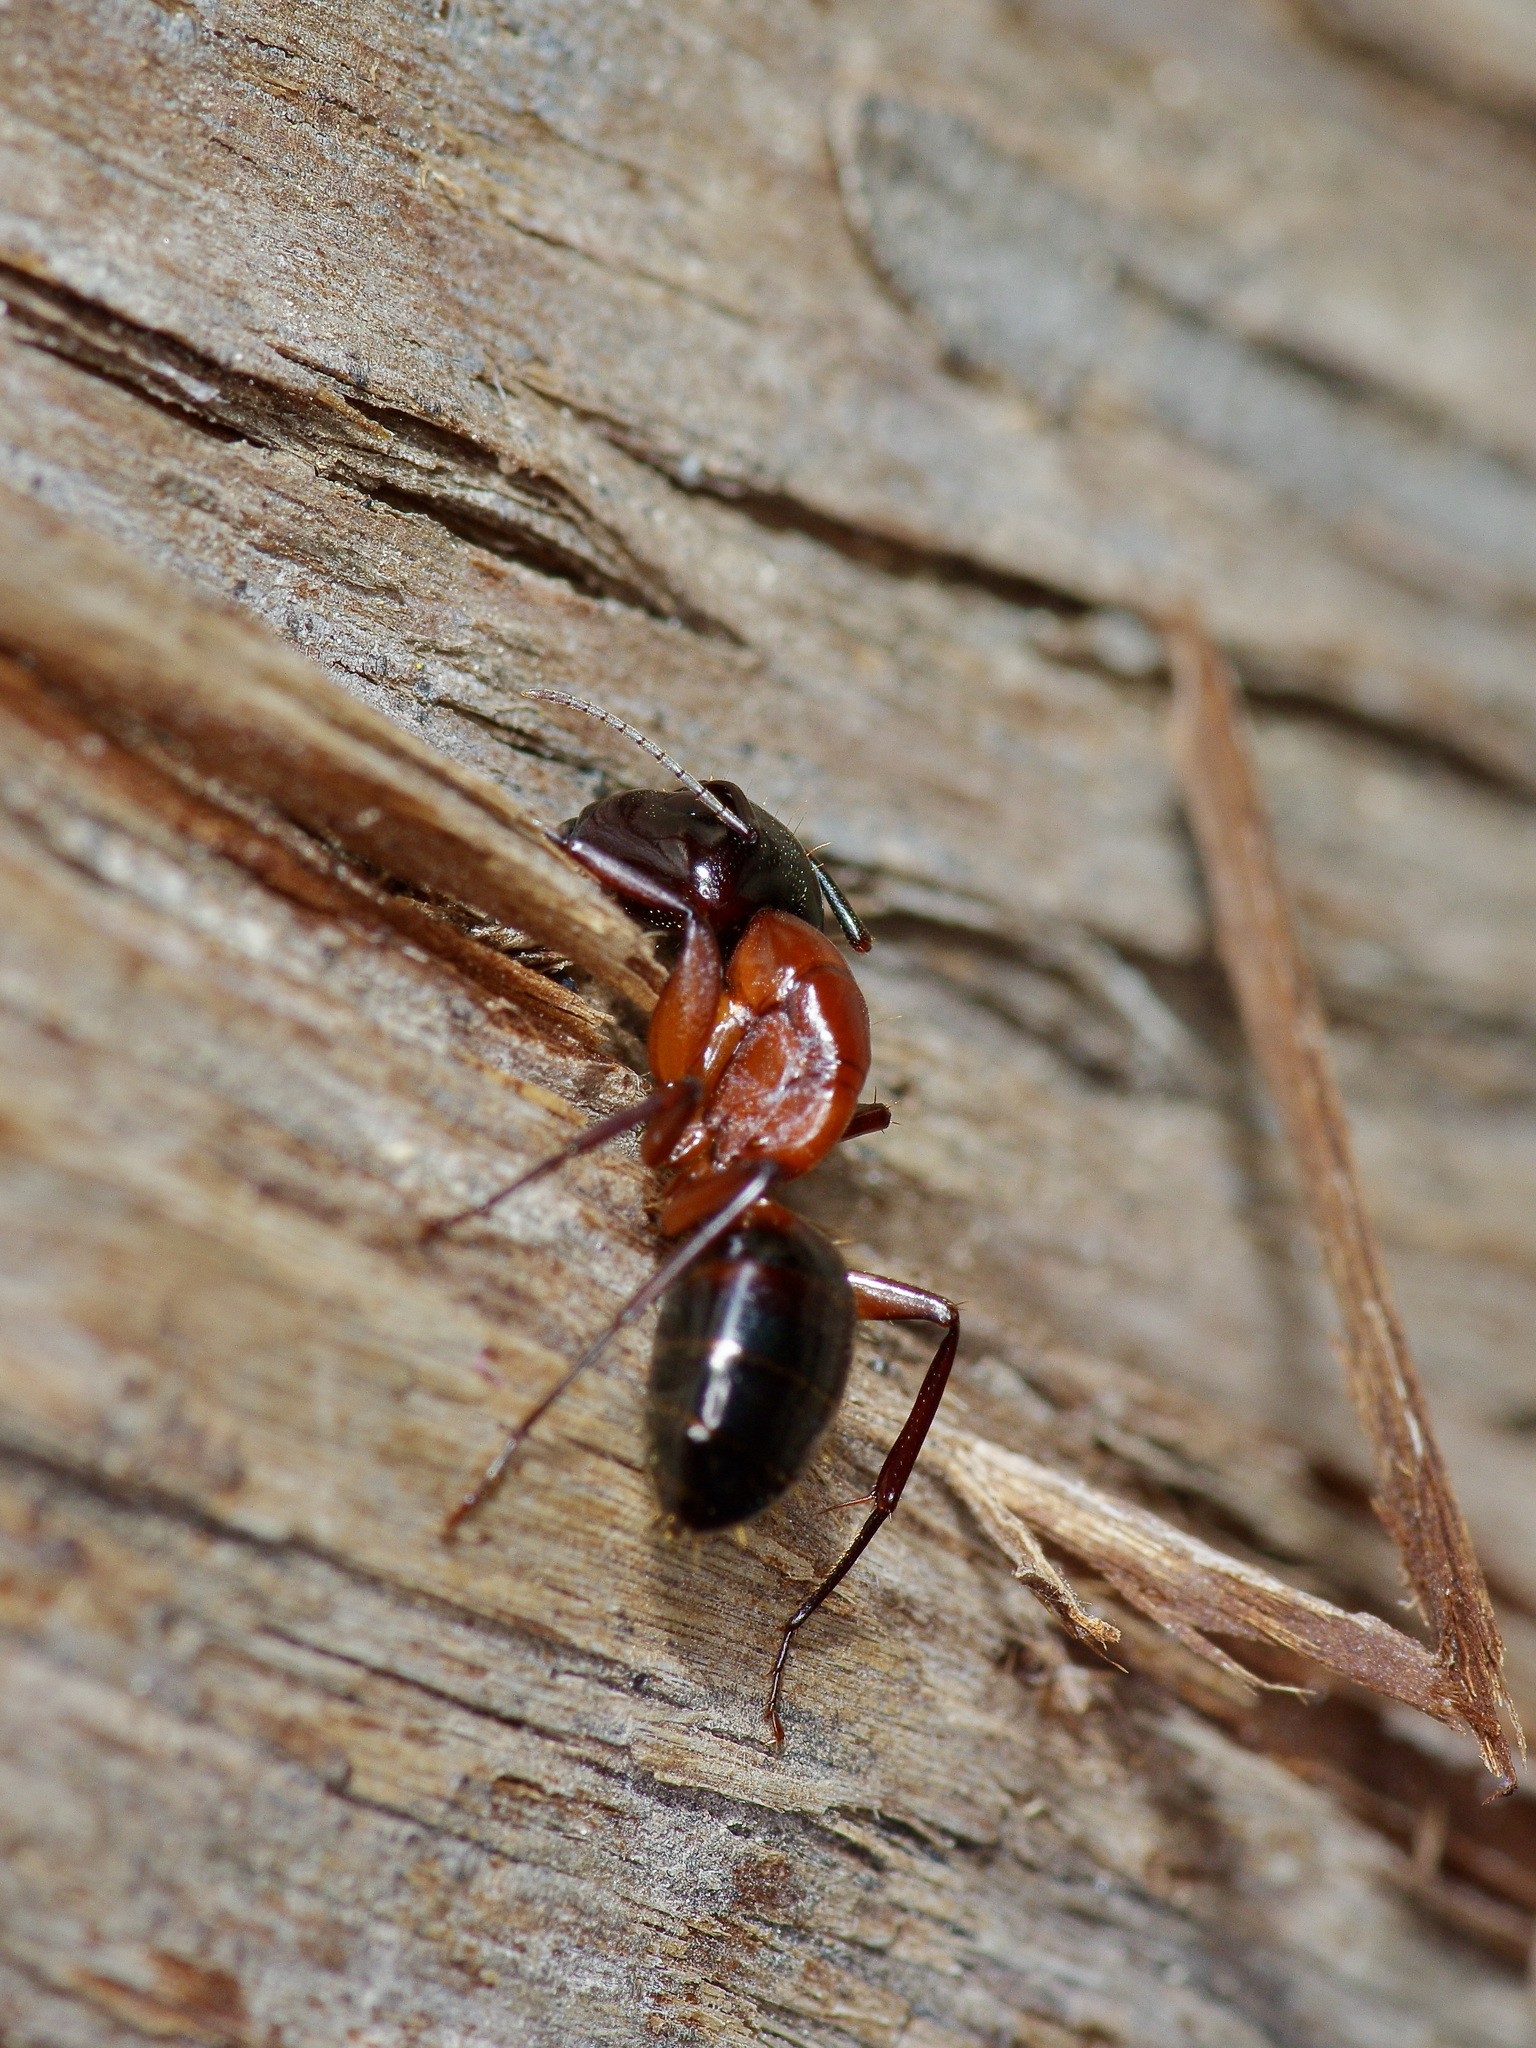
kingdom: Animalia
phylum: Arthropoda
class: Insecta
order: Hymenoptera
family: Formicidae
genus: Camponotus
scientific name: Camponotus texanus
